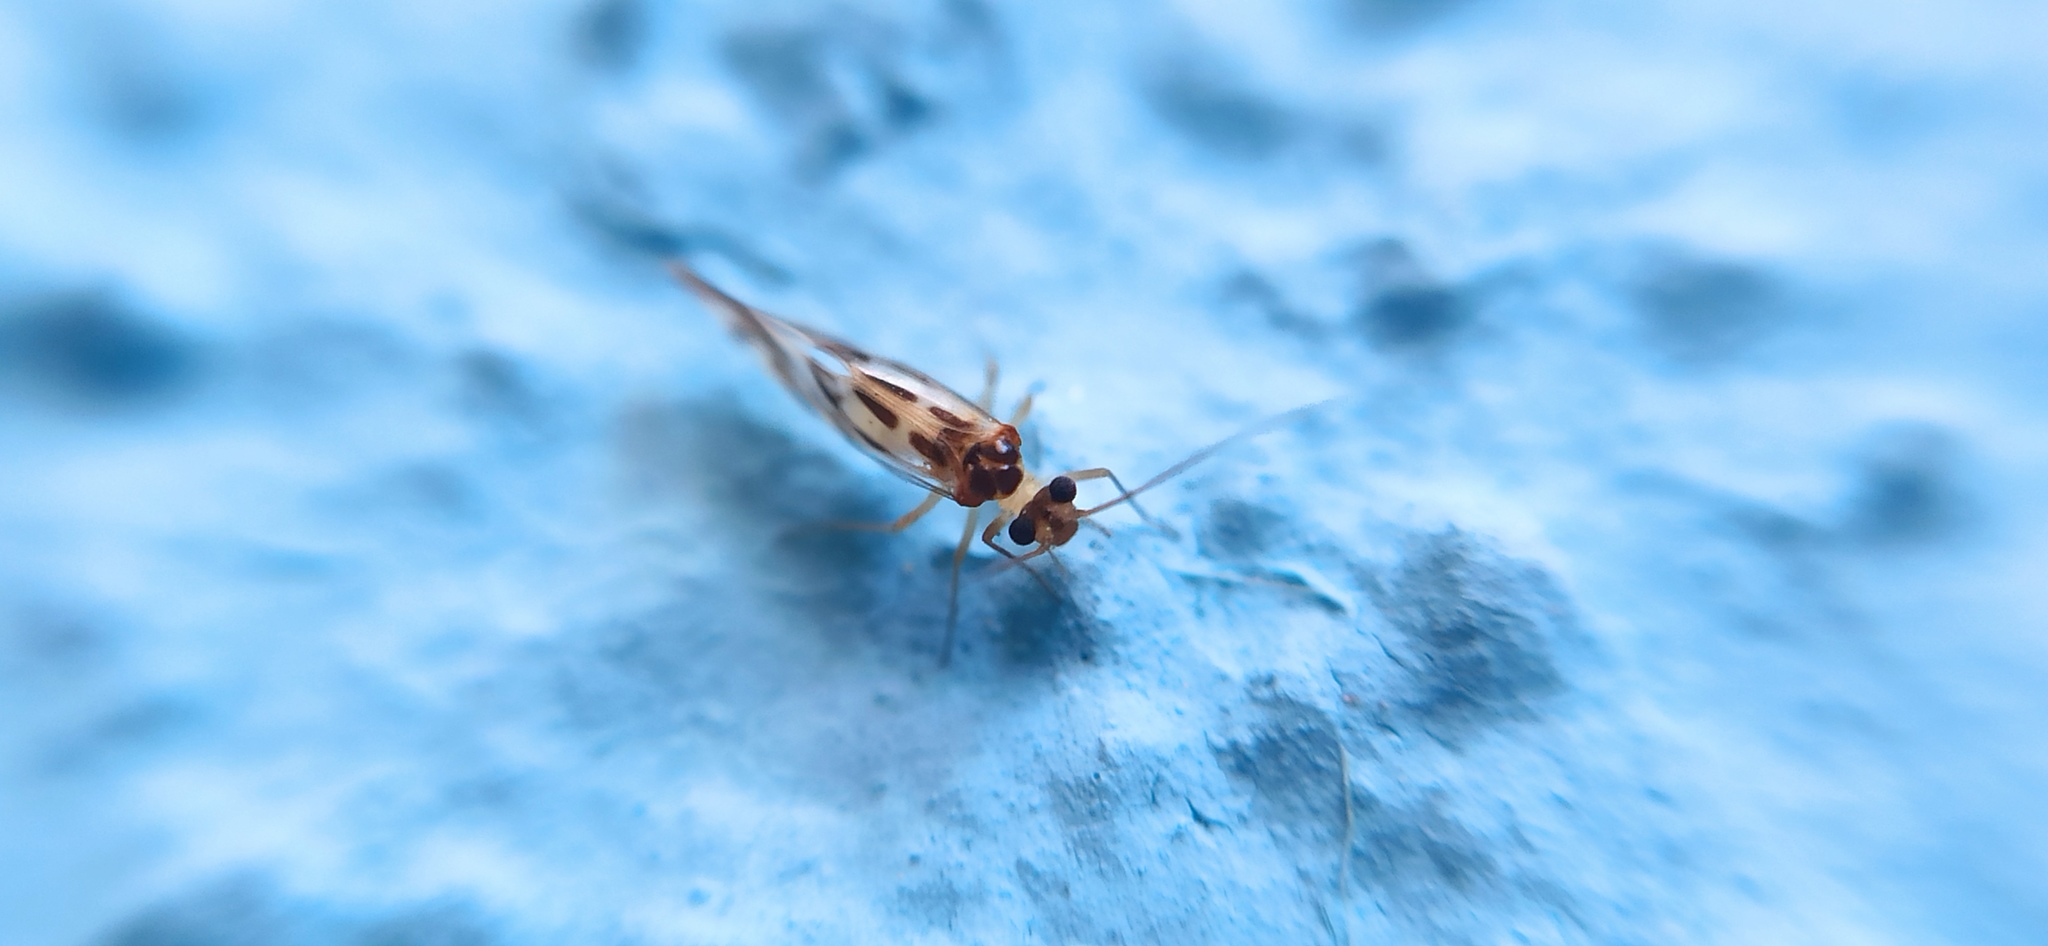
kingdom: Animalia
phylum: Arthropoda
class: Insecta
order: Psocodea
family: Stenopsocidae
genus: Graphopsocus
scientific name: Graphopsocus cruciatus
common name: Lizard bark louse
